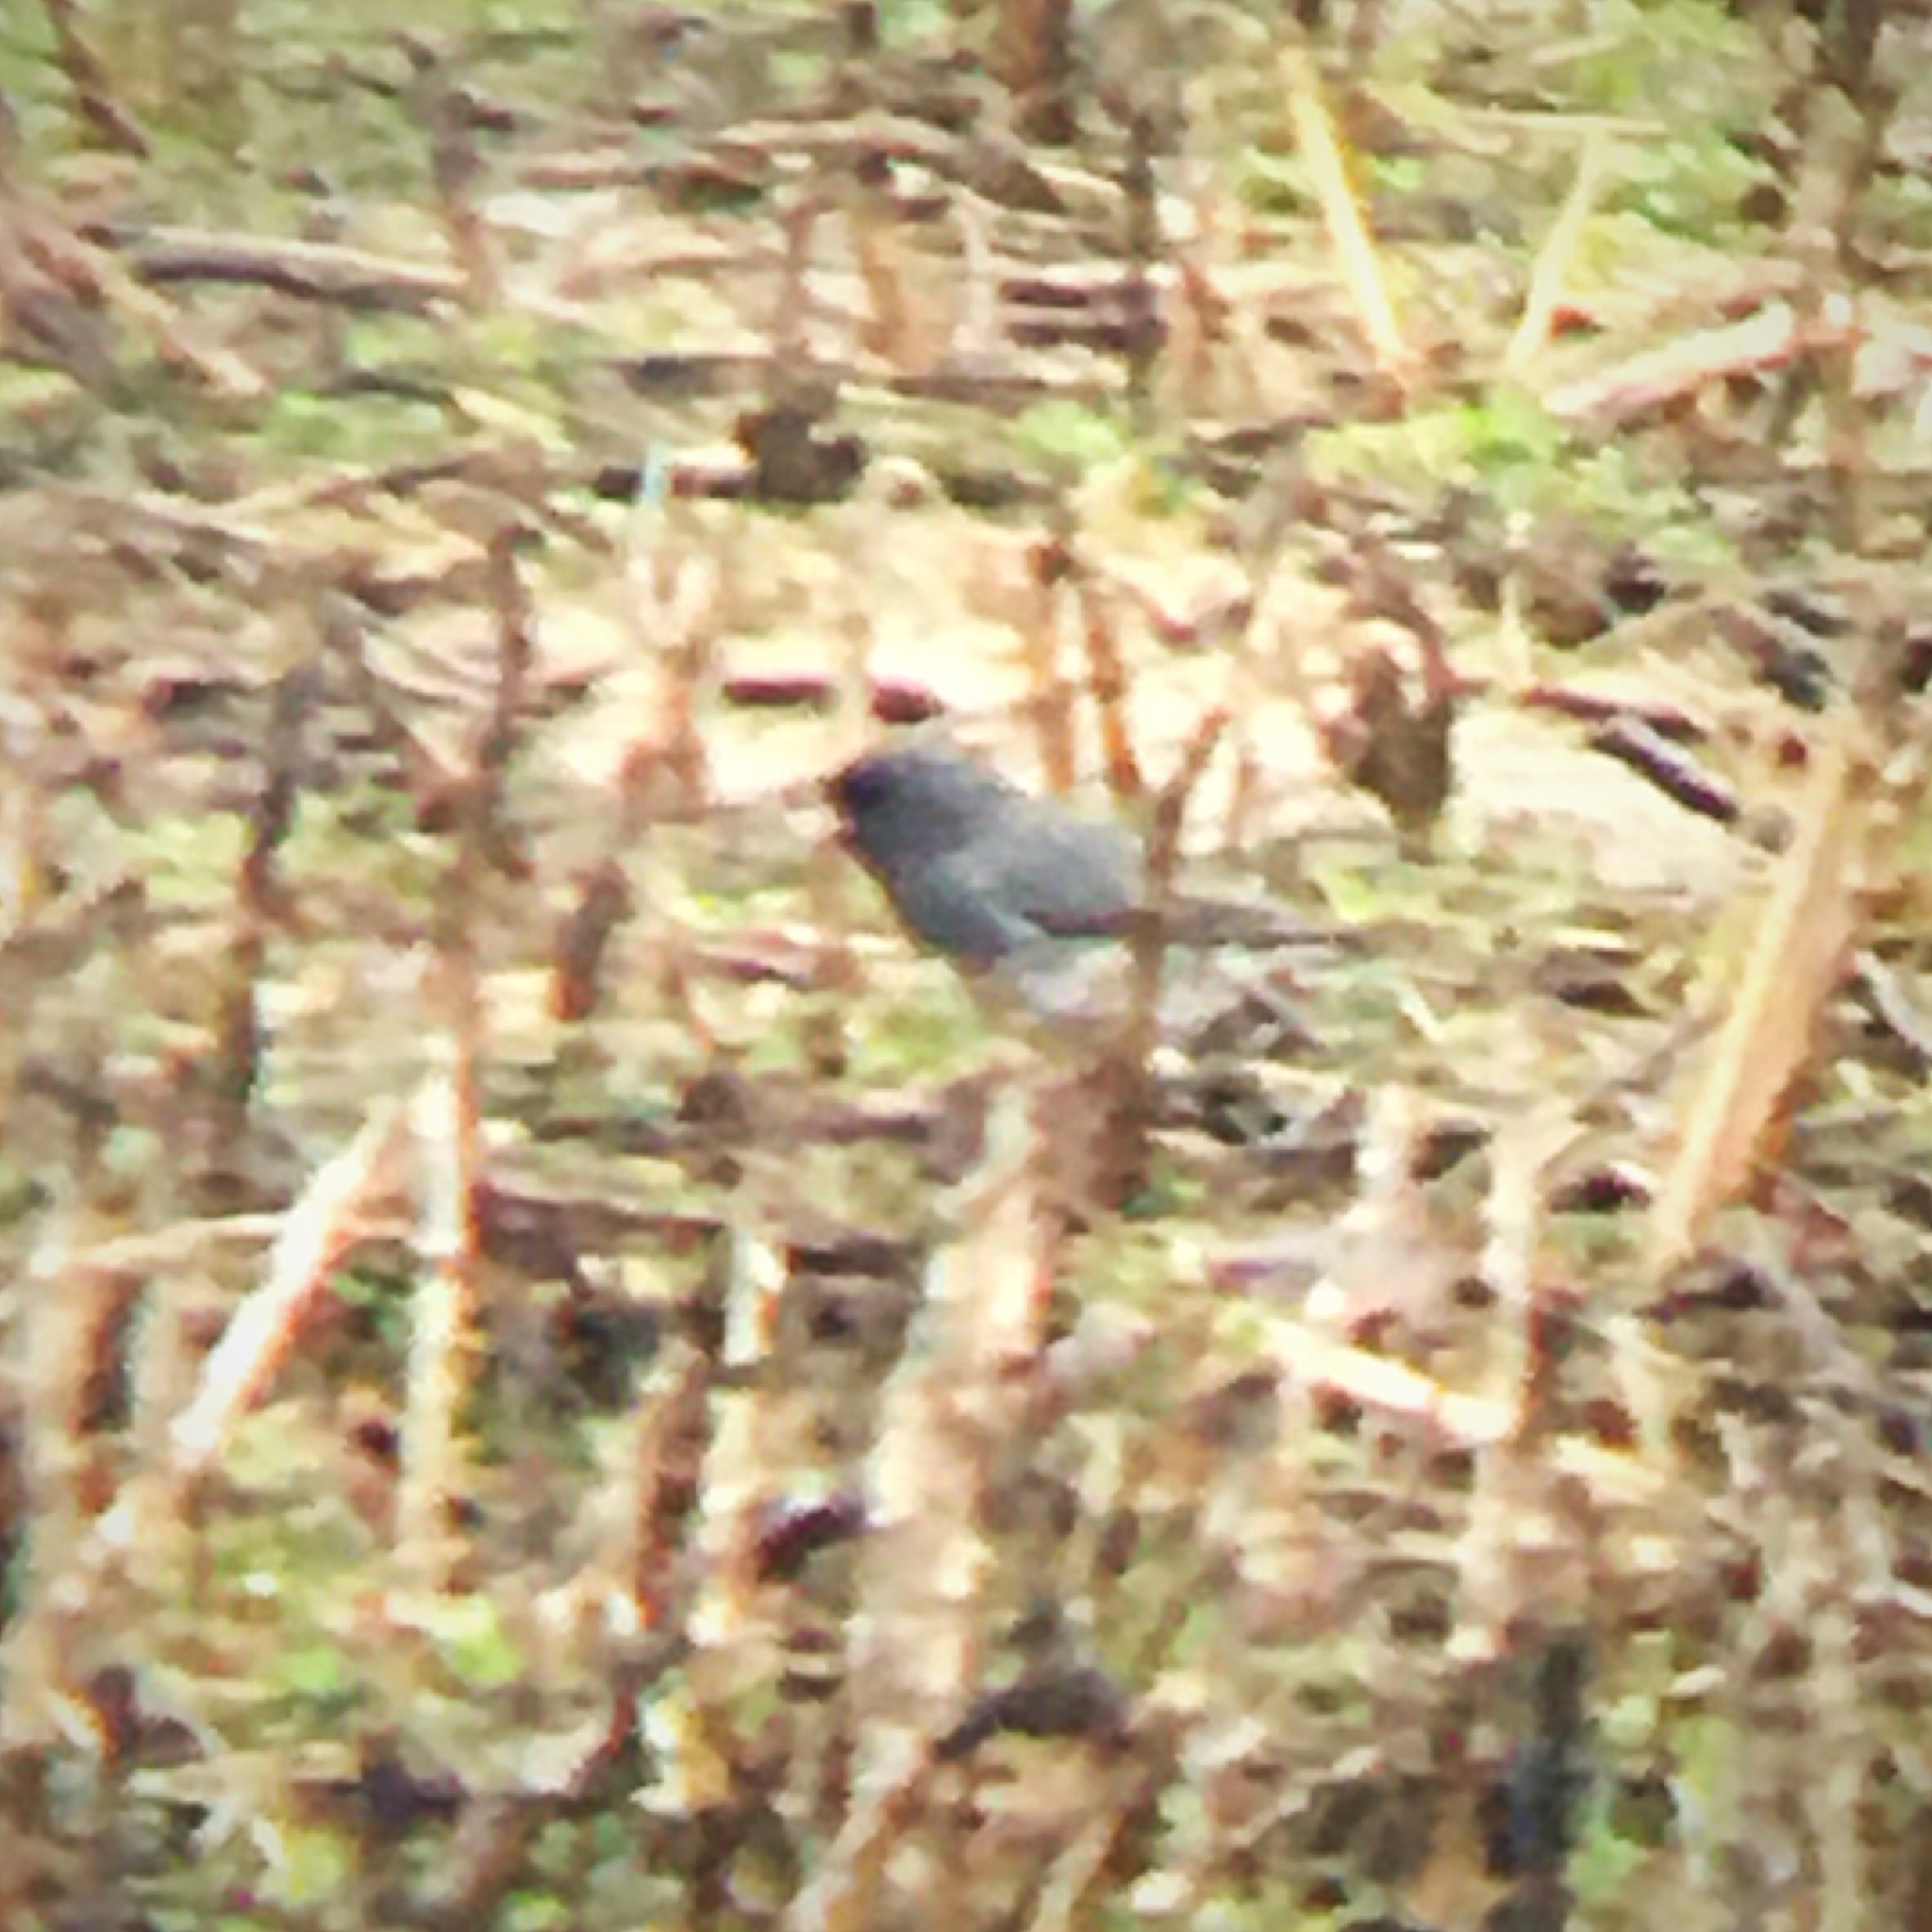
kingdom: Animalia
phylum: Chordata
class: Aves
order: Passeriformes
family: Passerellidae
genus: Junco
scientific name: Junco hyemalis
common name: Dark-eyed junco
